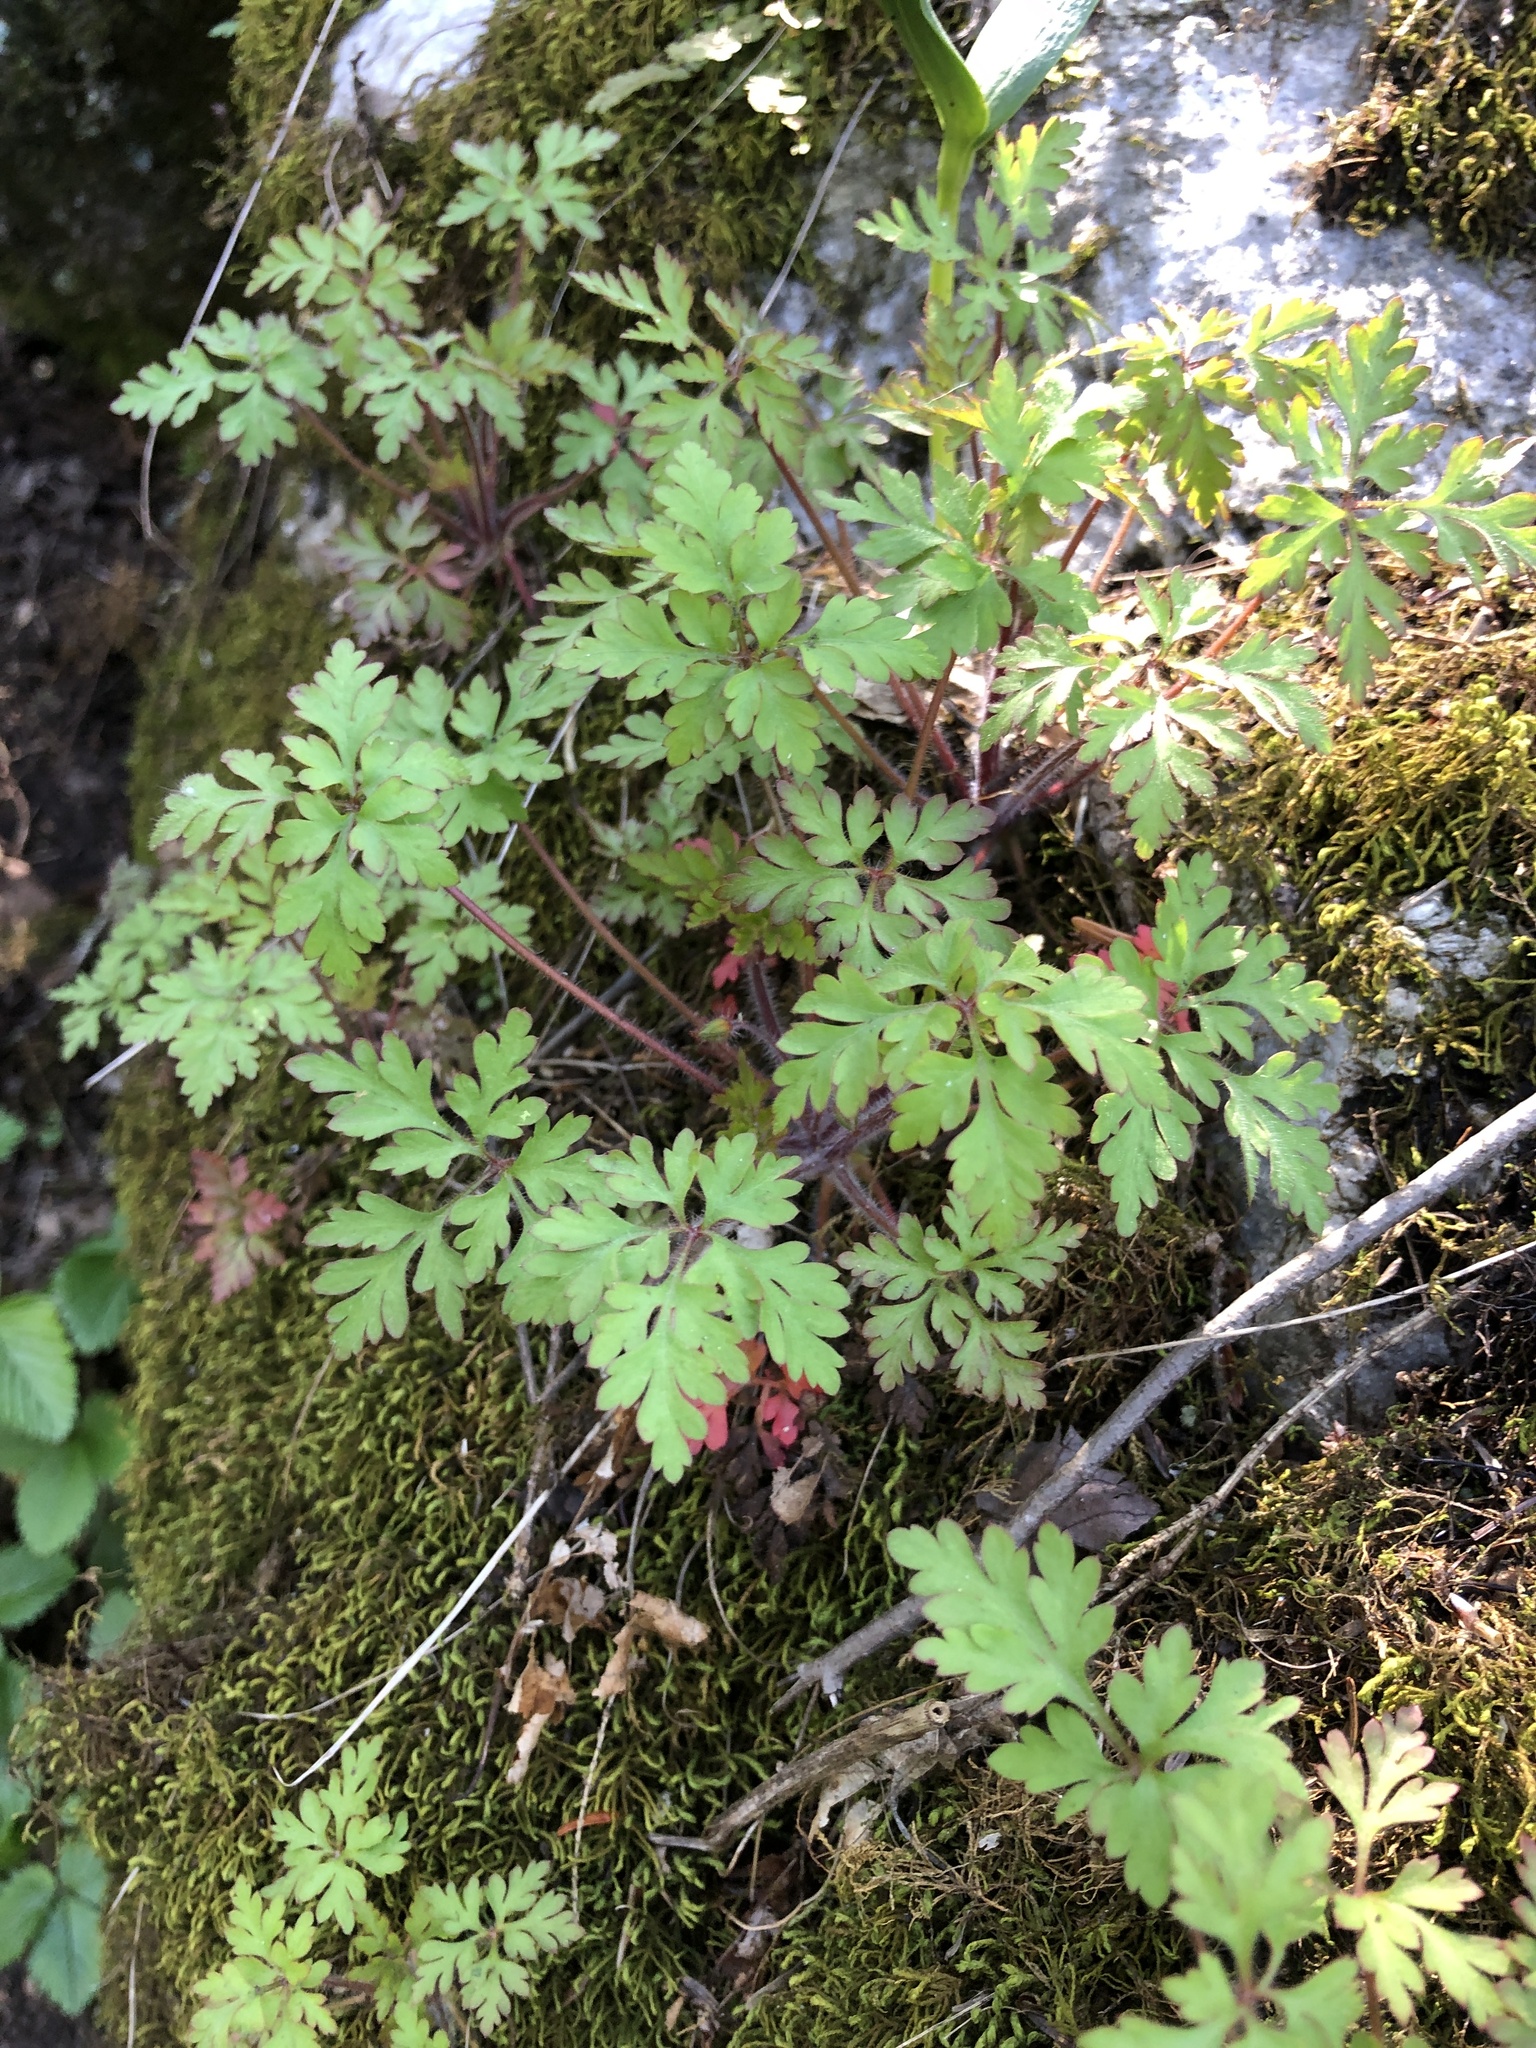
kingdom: Plantae
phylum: Tracheophyta
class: Magnoliopsida
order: Geraniales
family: Geraniaceae
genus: Geranium
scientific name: Geranium robertianum
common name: Herb-robert
